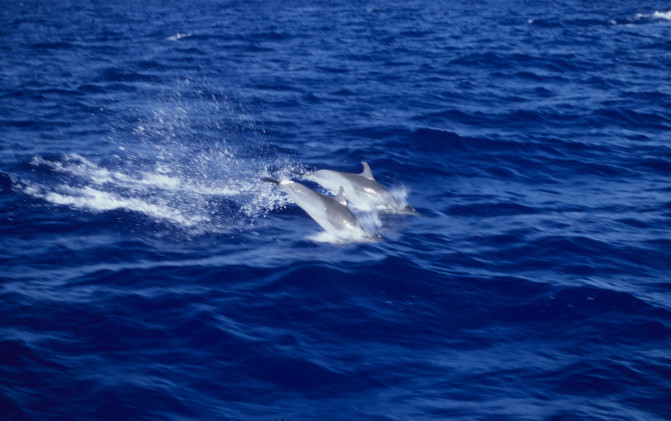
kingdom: Animalia
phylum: Chordata
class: Mammalia
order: Cetacea
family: Delphinidae
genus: Stenella
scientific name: Stenella attenuata
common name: Pantropical spotted dolphin
